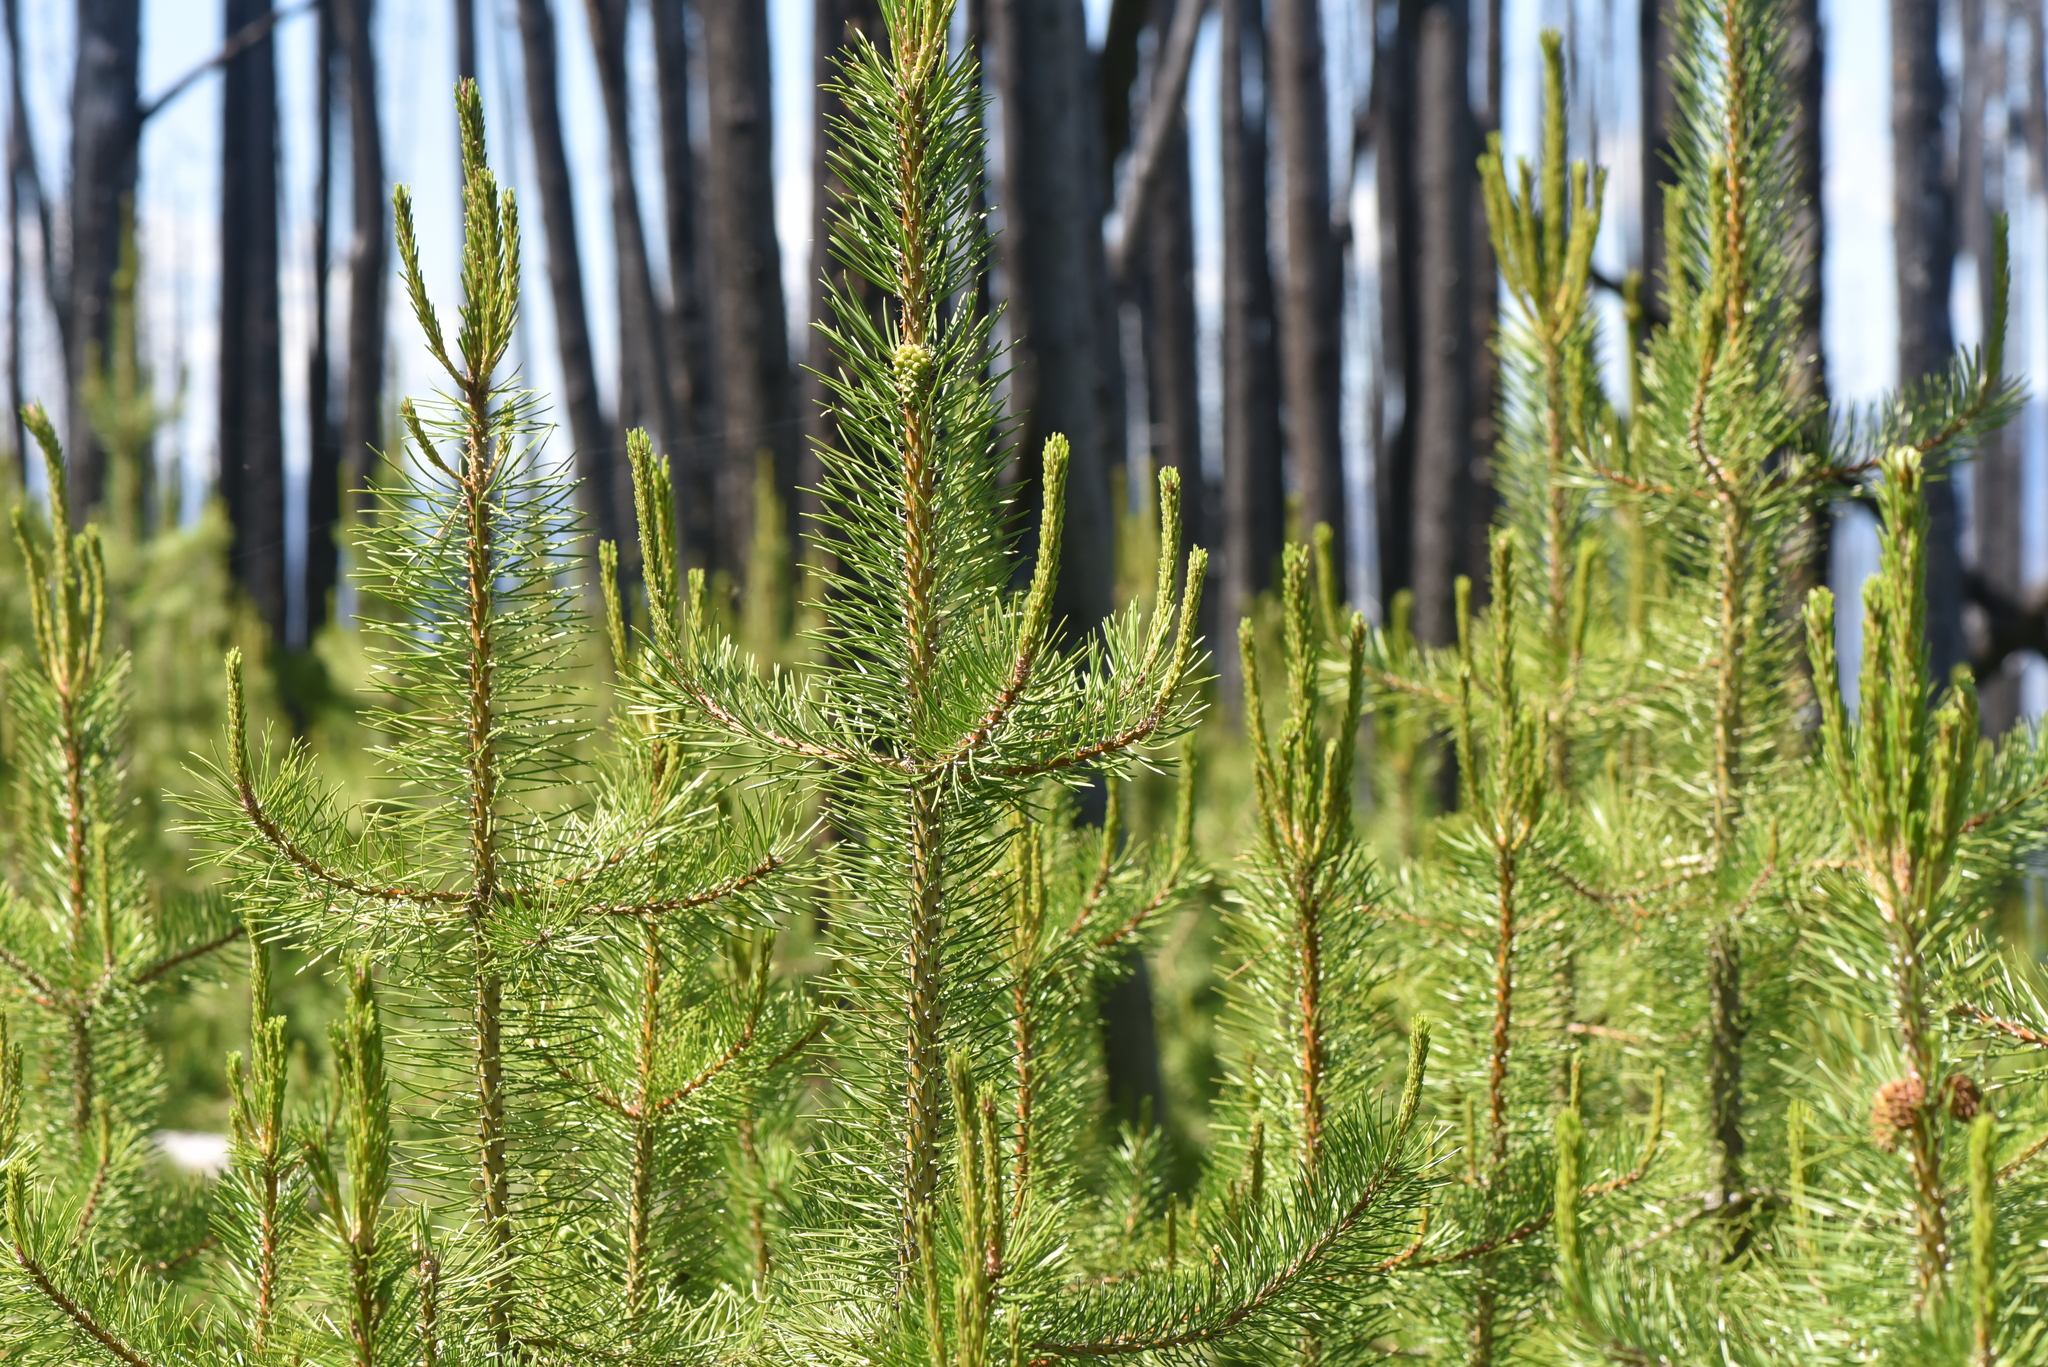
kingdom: Plantae
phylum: Tracheophyta
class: Pinopsida
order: Pinales
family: Pinaceae
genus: Pinus
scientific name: Pinus contorta
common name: Lodgepole pine
